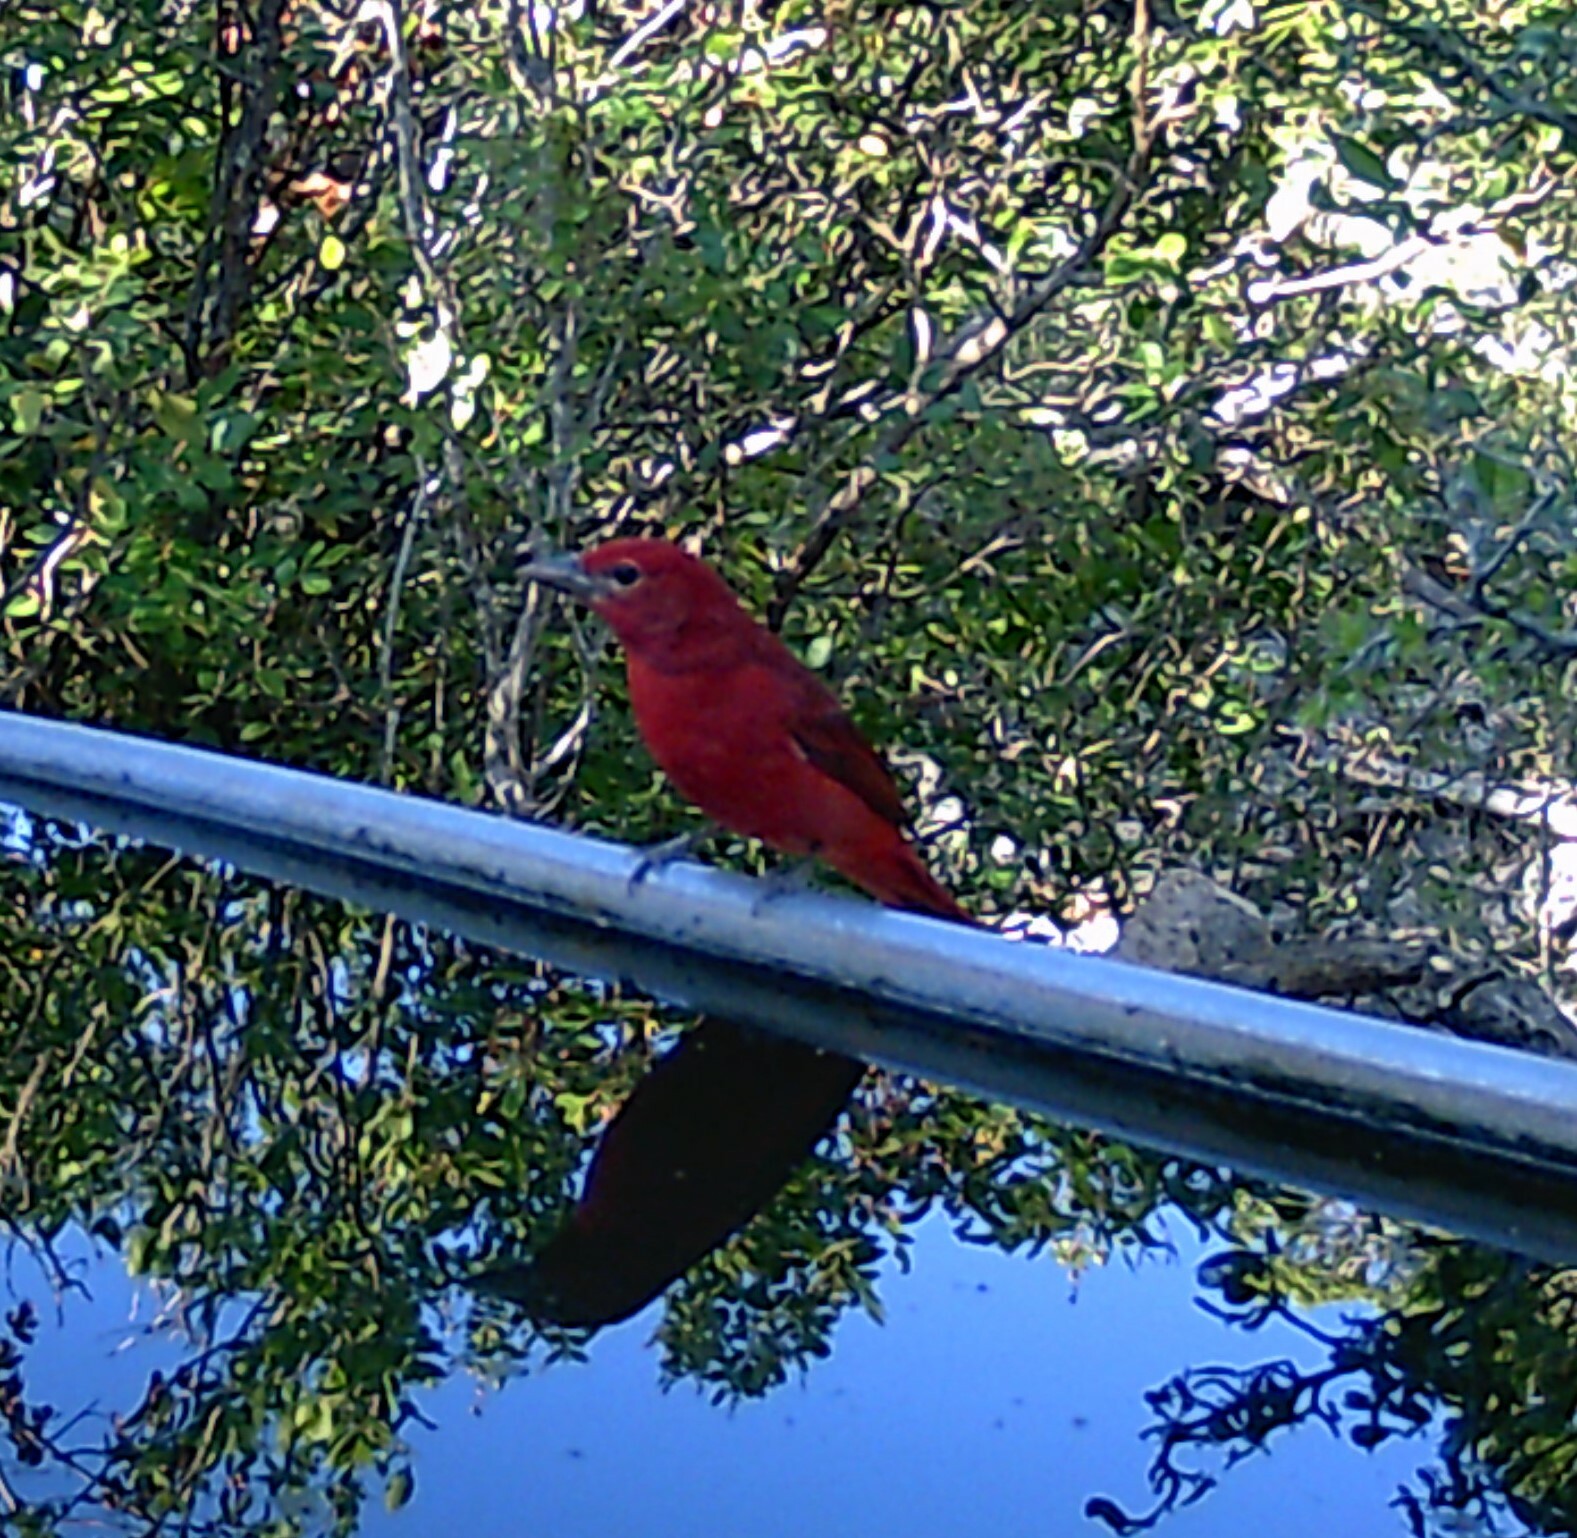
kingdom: Animalia
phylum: Chordata
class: Aves
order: Passeriformes
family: Cardinalidae
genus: Piranga
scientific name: Piranga rubra
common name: Summer tanager
